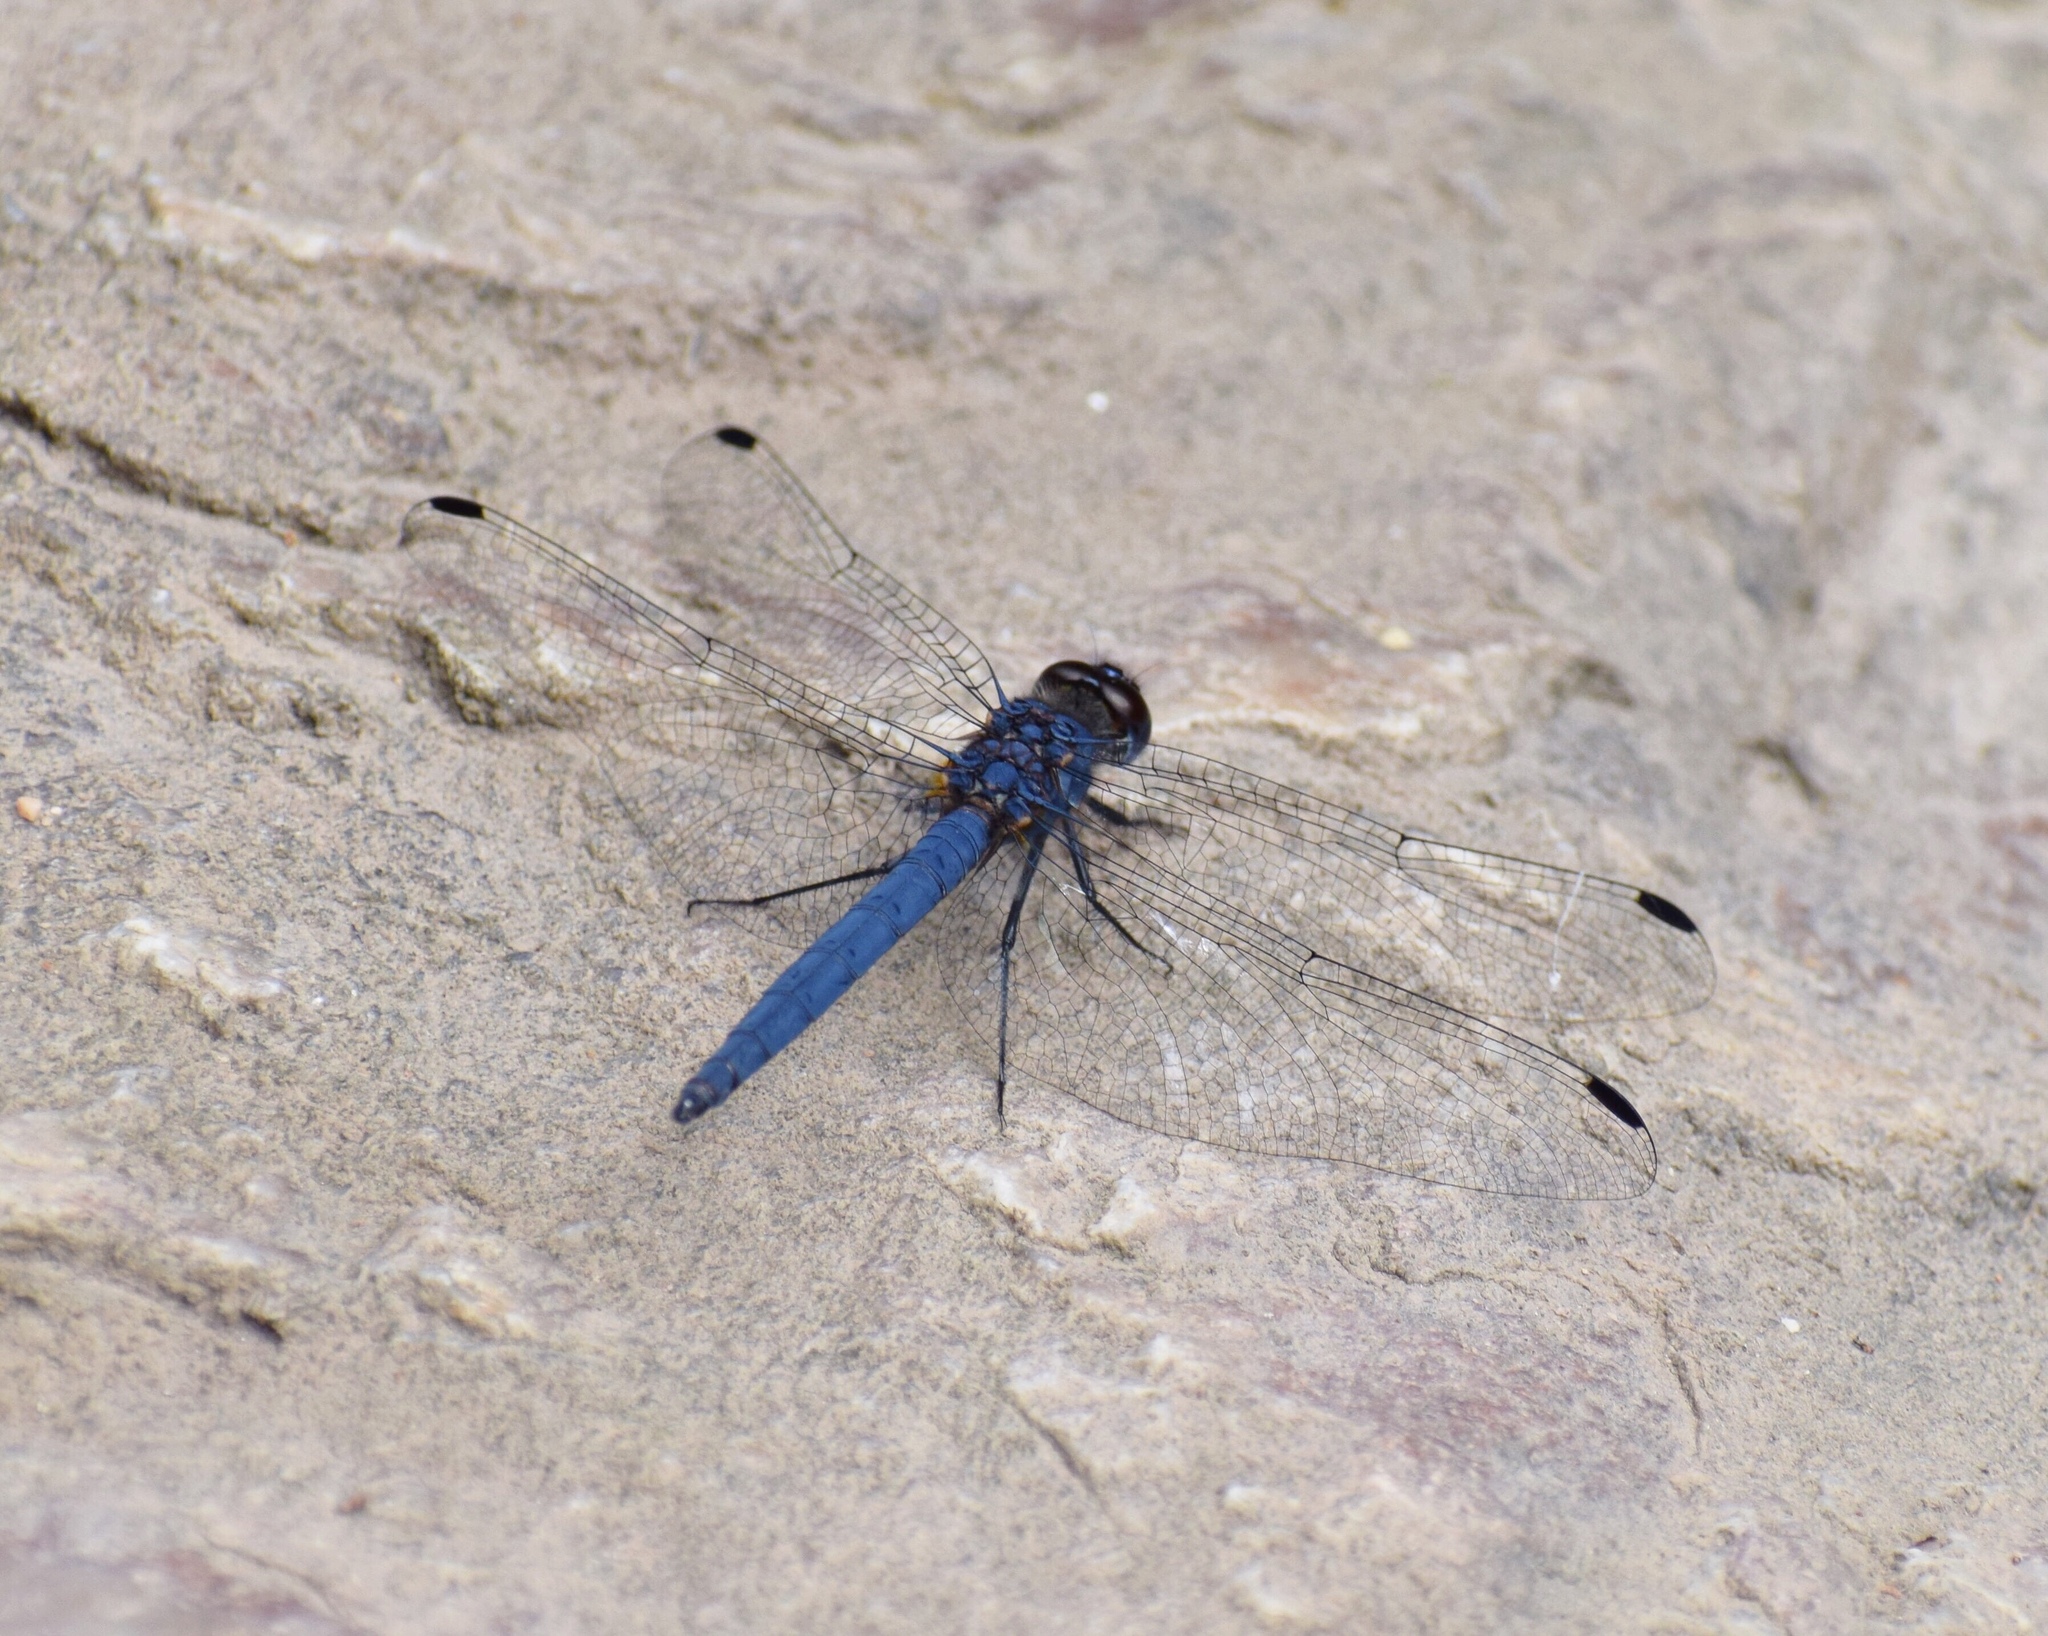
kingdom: Animalia
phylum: Arthropoda
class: Insecta
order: Odonata
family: Libellulidae
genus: Trithemis
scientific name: Trithemis furva
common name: Dark dropwing
